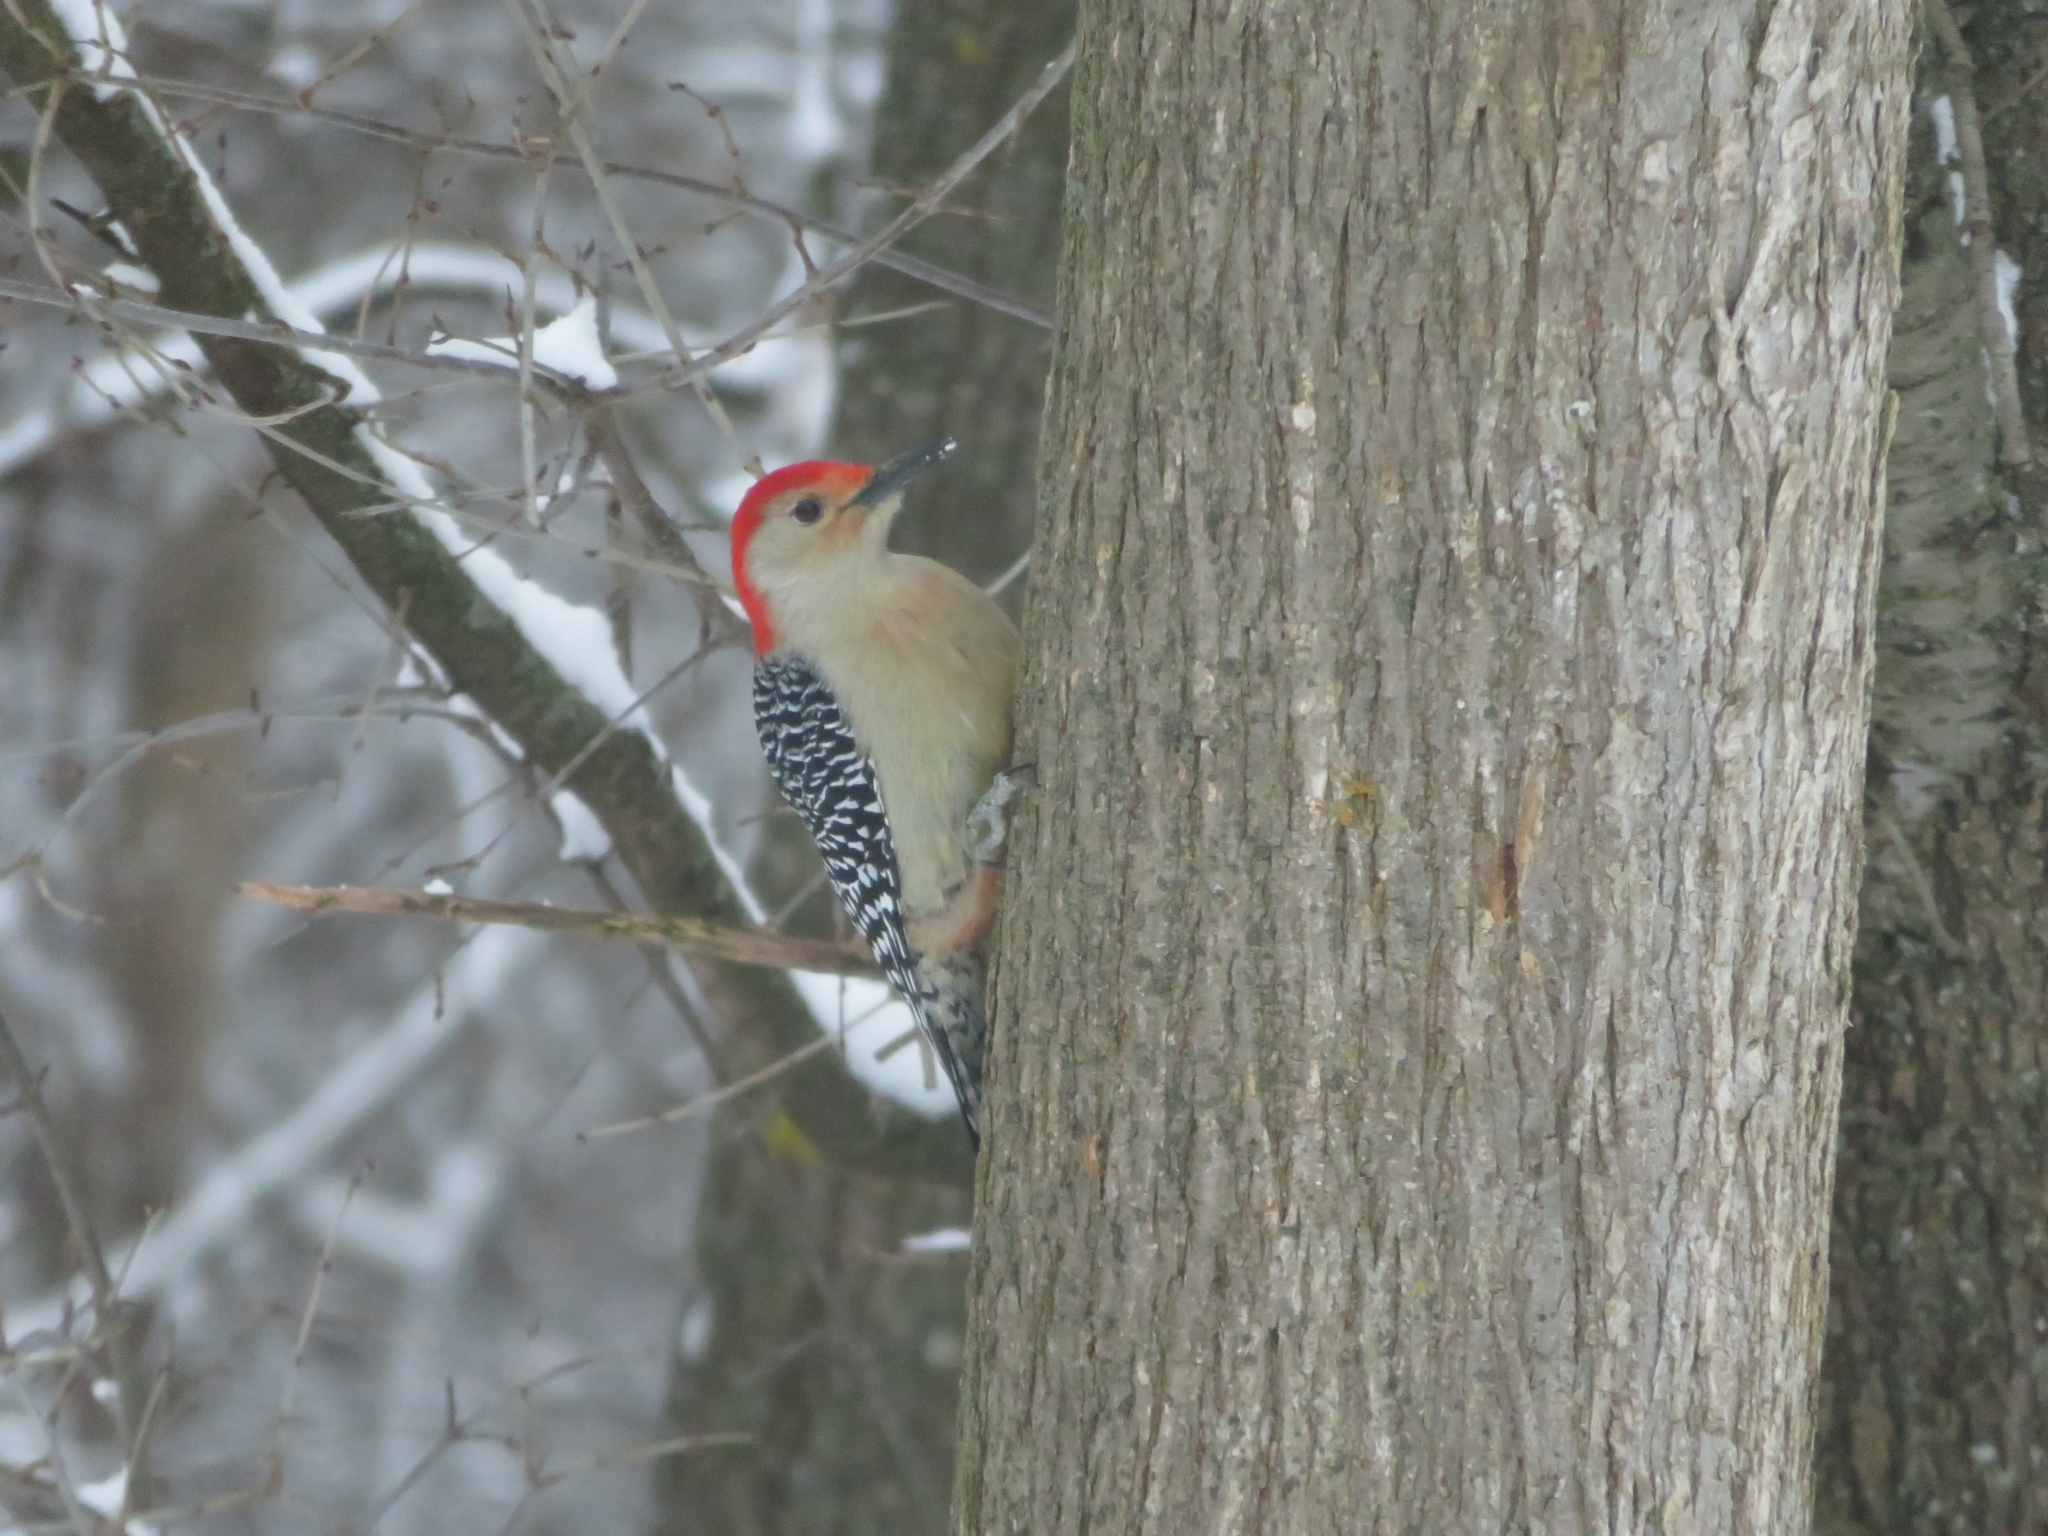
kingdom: Animalia
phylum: Chordata
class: Aves
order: Piciformes
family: Picidae
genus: Melanerpes
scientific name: Melanerpes carolinus
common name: Red-bellied woodpecker
